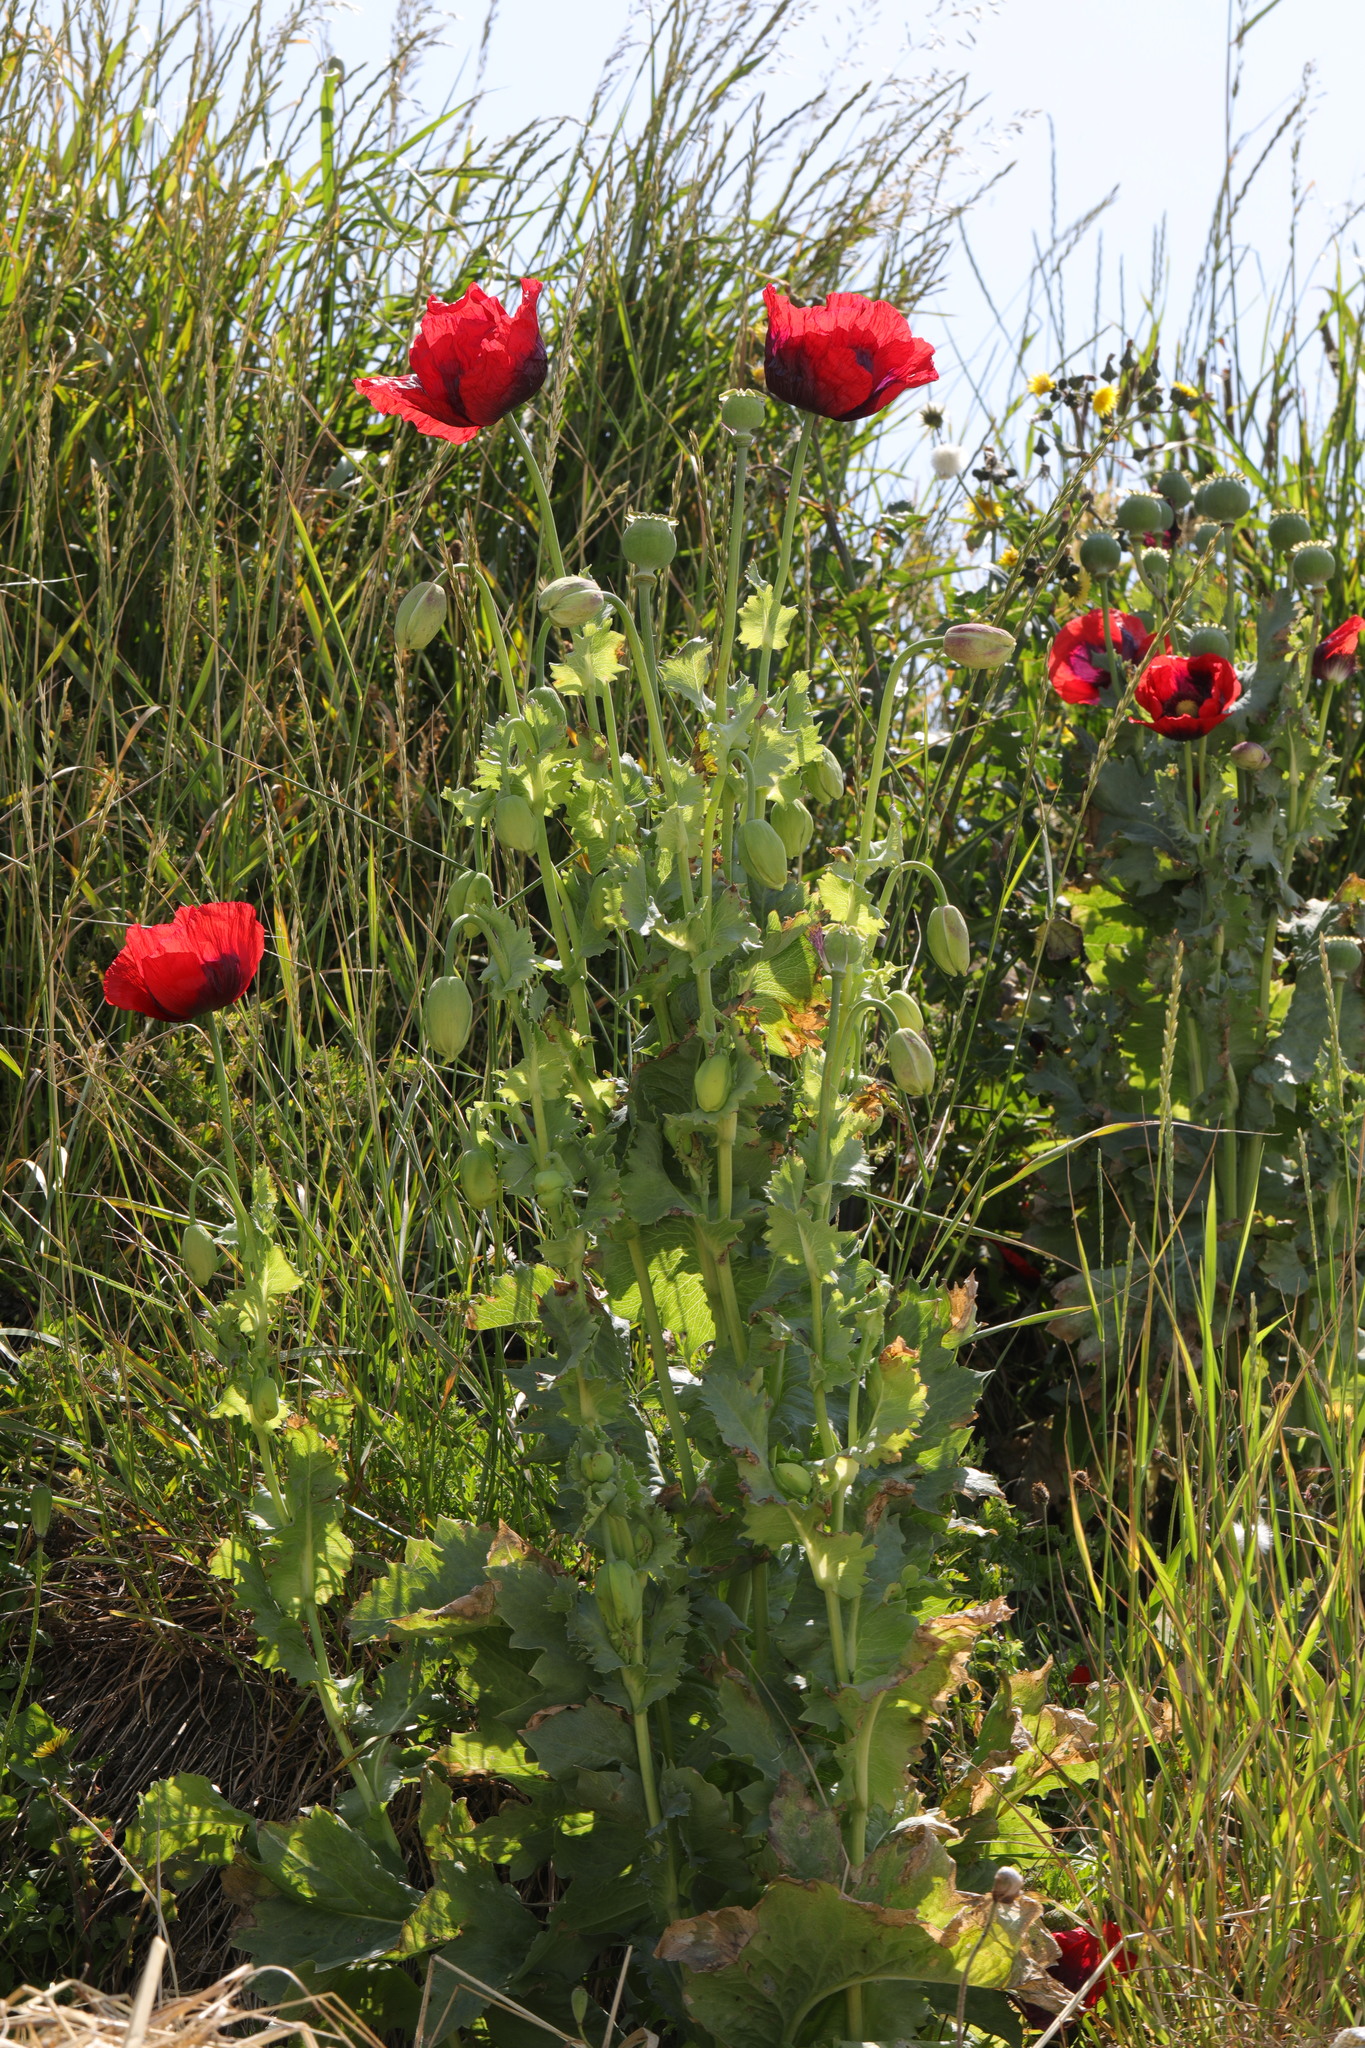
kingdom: Plantae
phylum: Tracheophyta
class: Magnoliopsida
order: Ranunculales
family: Papaveraceae
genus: Papaver
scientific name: Papaver somniferum
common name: Opium poppy
